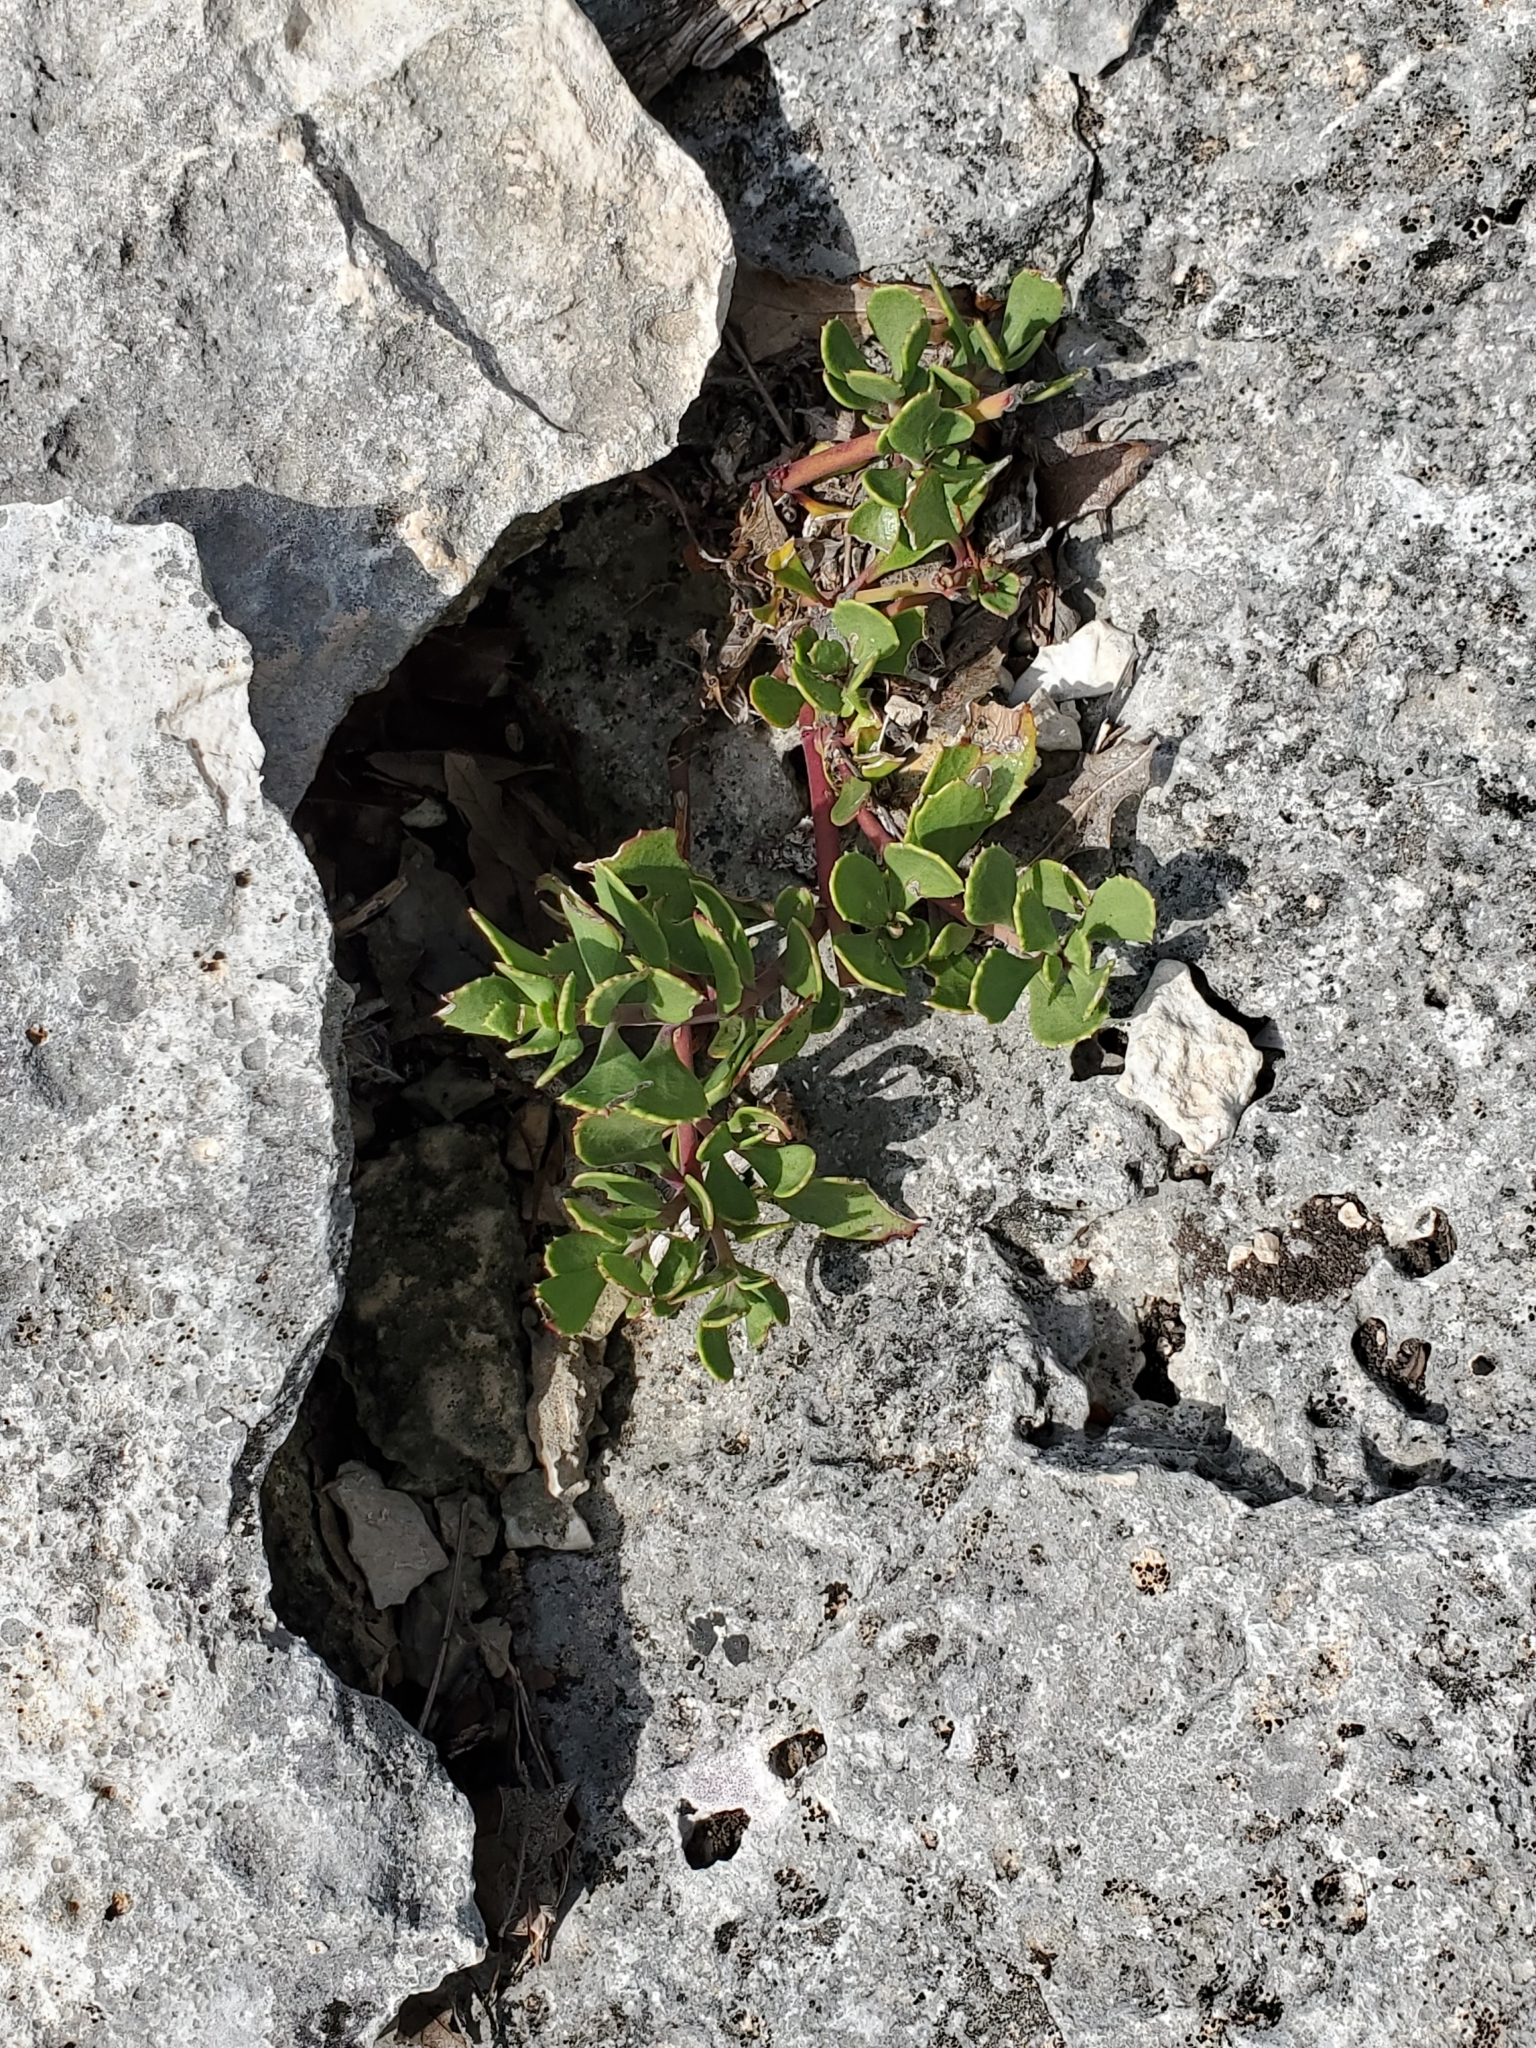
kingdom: Plantae
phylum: Tracheophyta
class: Magnoliopsida
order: Lamiales
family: Plantaginaceae
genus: Penstemon
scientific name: Penstemon baccharifolius
